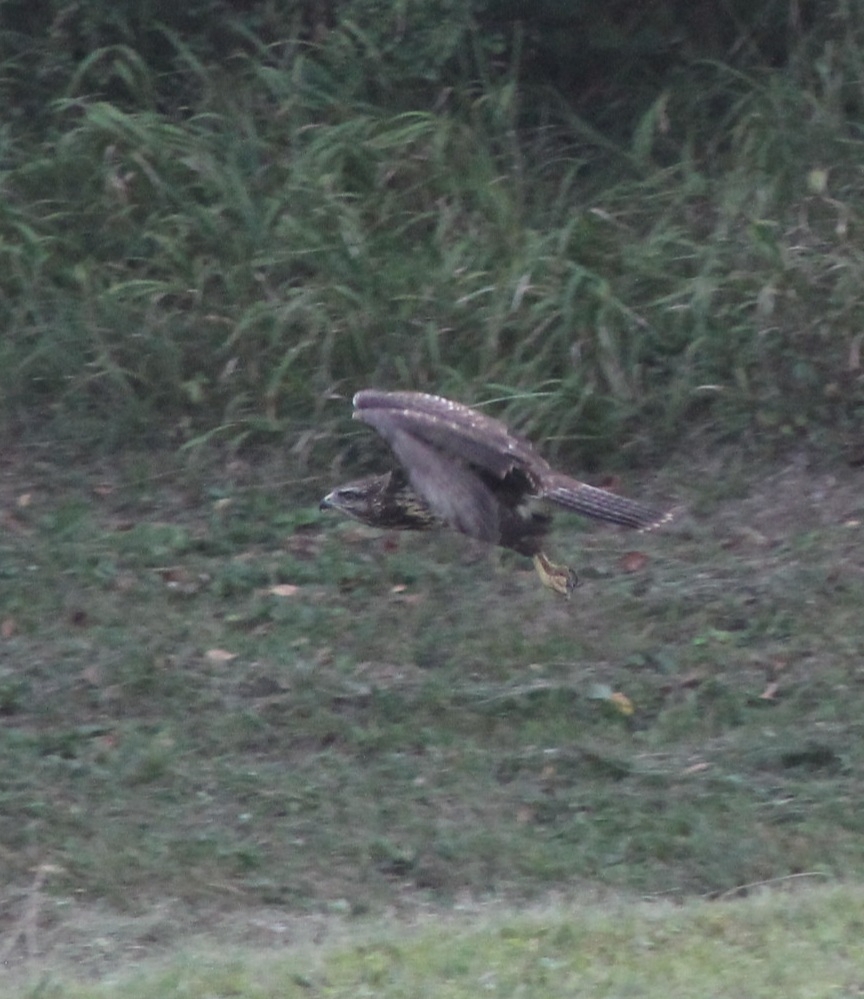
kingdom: Animalia
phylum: Chordata
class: Aves
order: Accipitriformes
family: Accipitridae
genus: Buteo
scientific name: Buteo buteo
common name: Common buzzard
